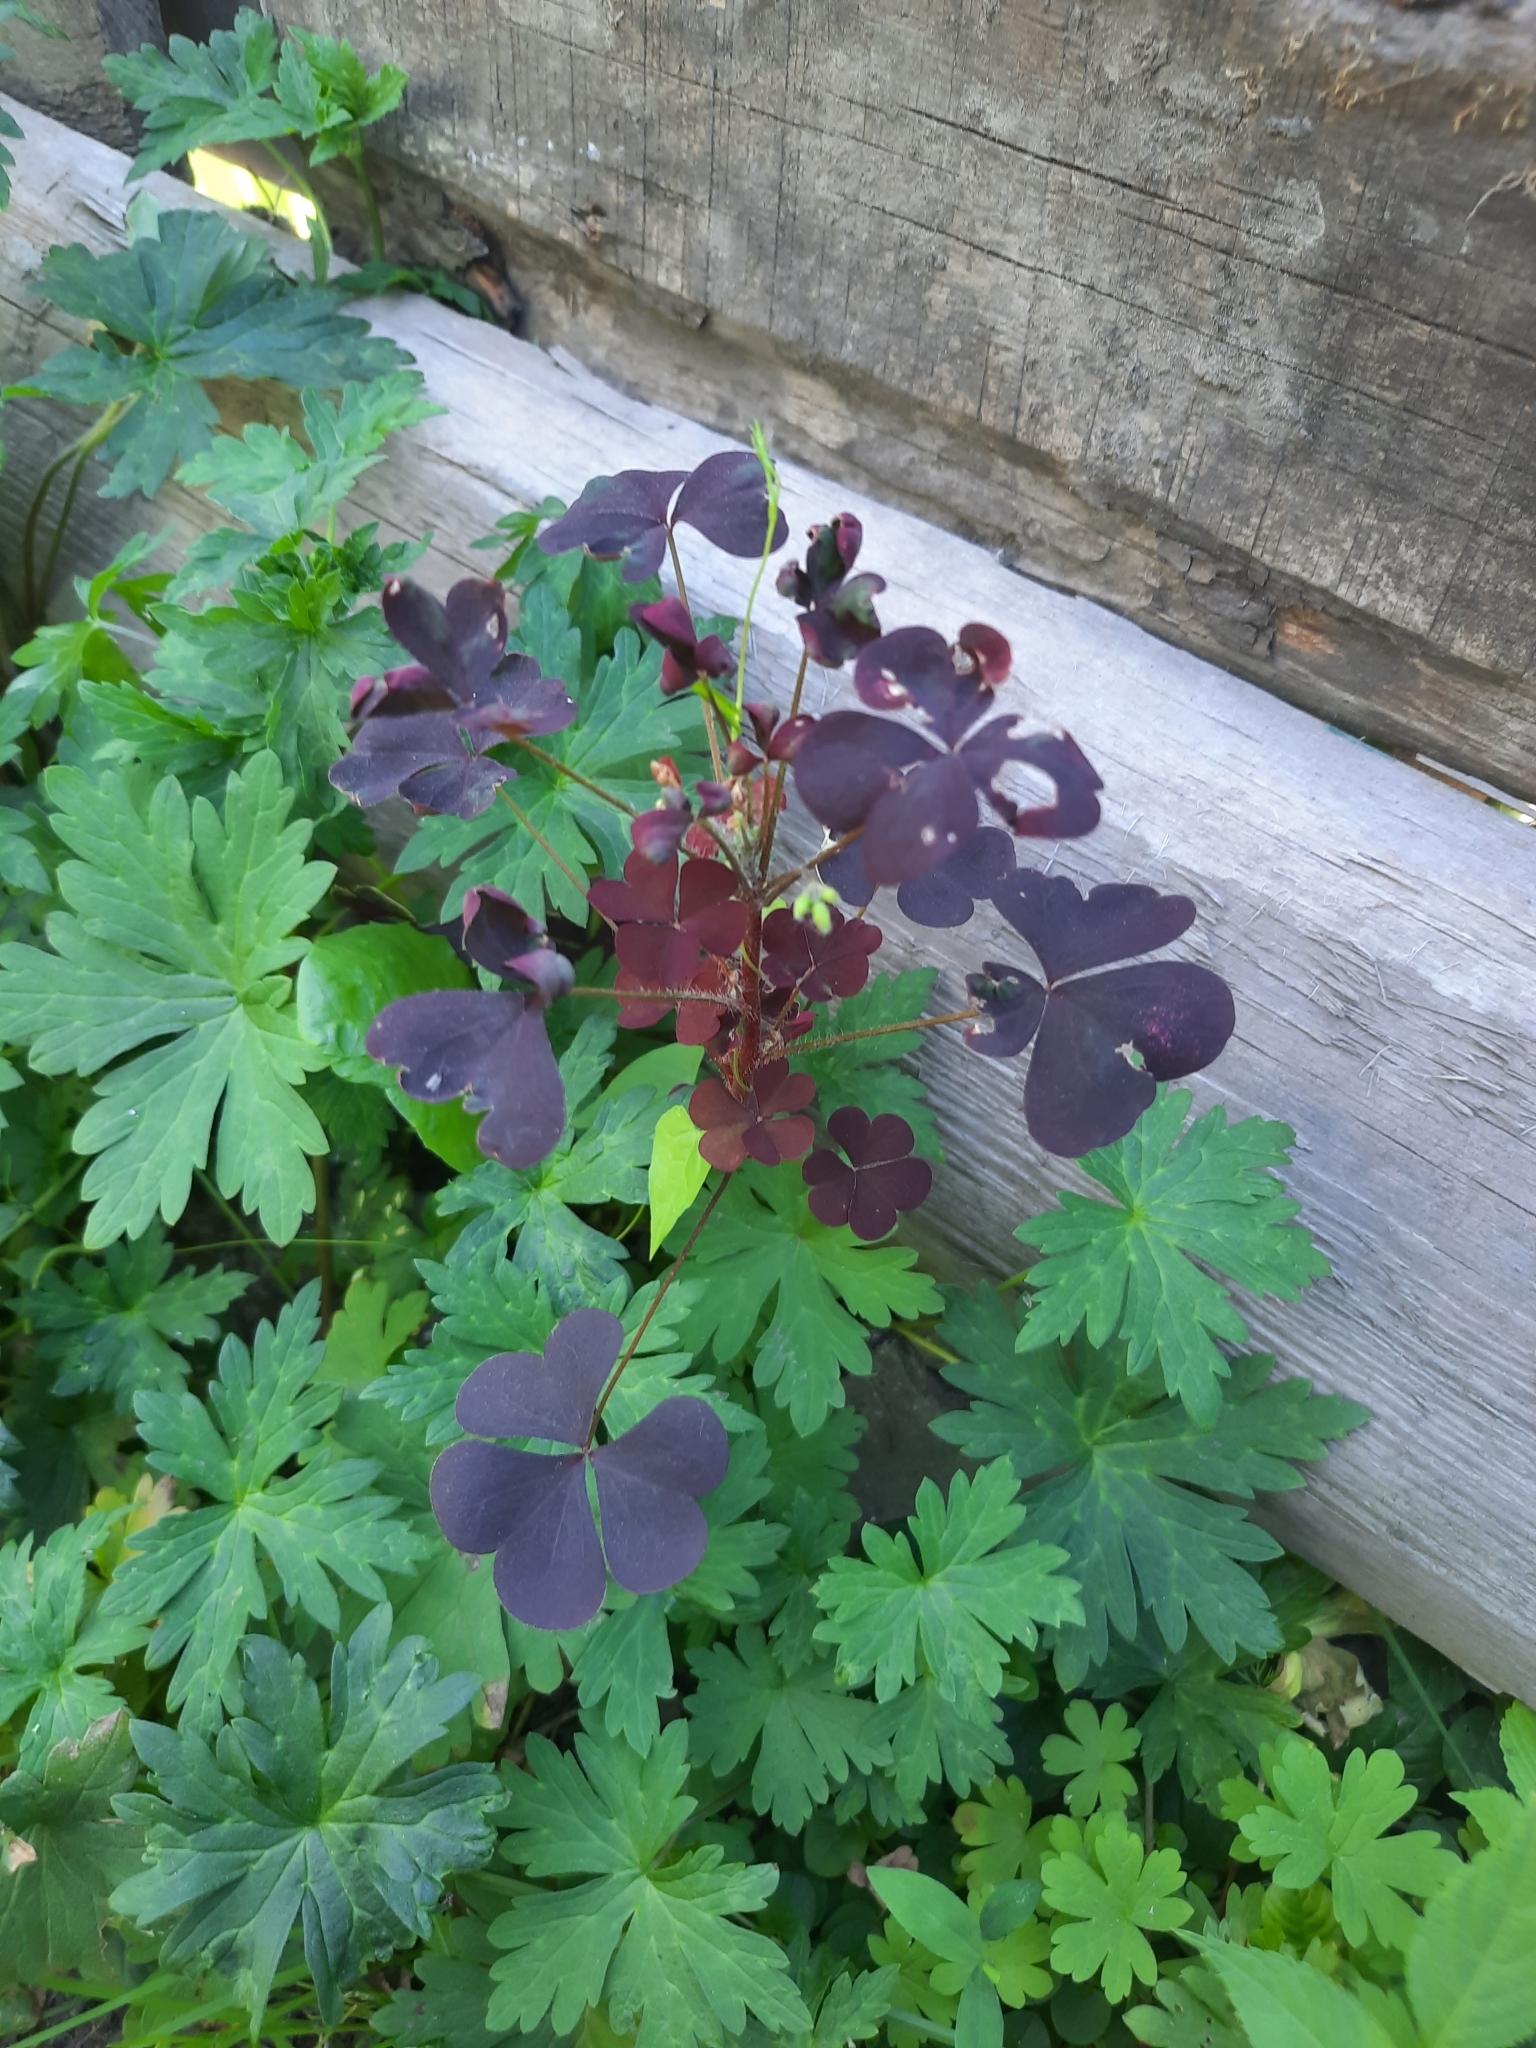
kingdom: Plantae
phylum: Tracheophyta
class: Magnoliopsida
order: Oxalidales
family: Oxalidaceae
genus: Oxalis
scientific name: Oxalis stricta
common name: Upright yellow-sorrel
